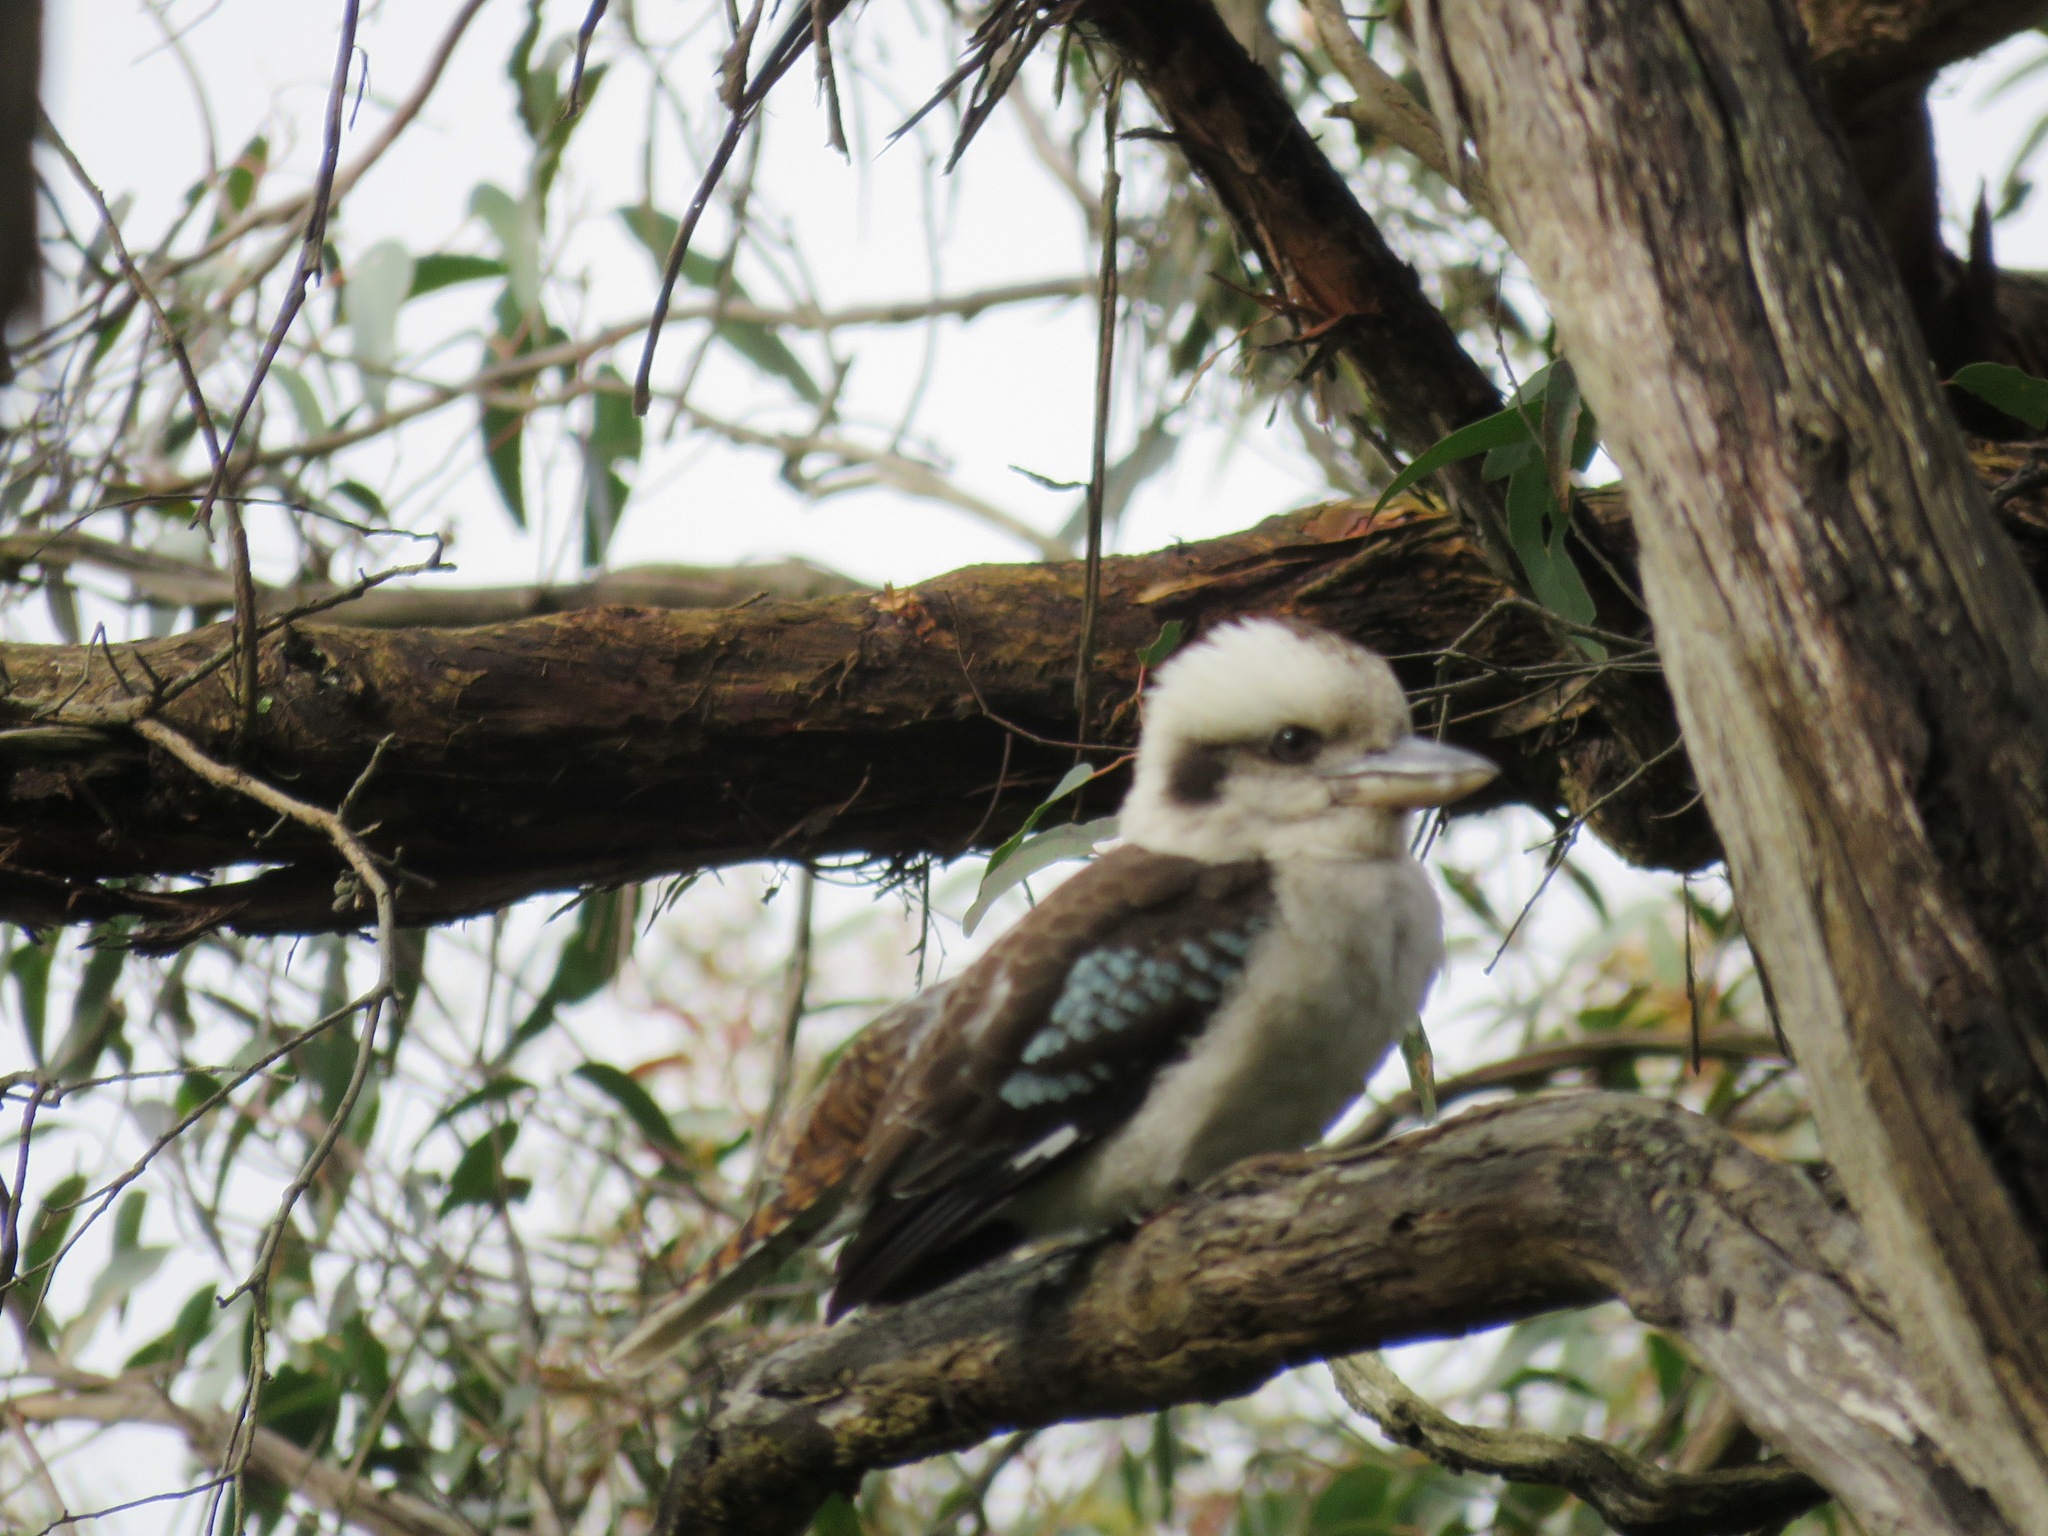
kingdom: Animalia
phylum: Chordata
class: Aves
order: Coraciiformes
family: Alcedinidae
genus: Dacelo
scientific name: Dacelo novaeguineae
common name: Laughing kookaburra
